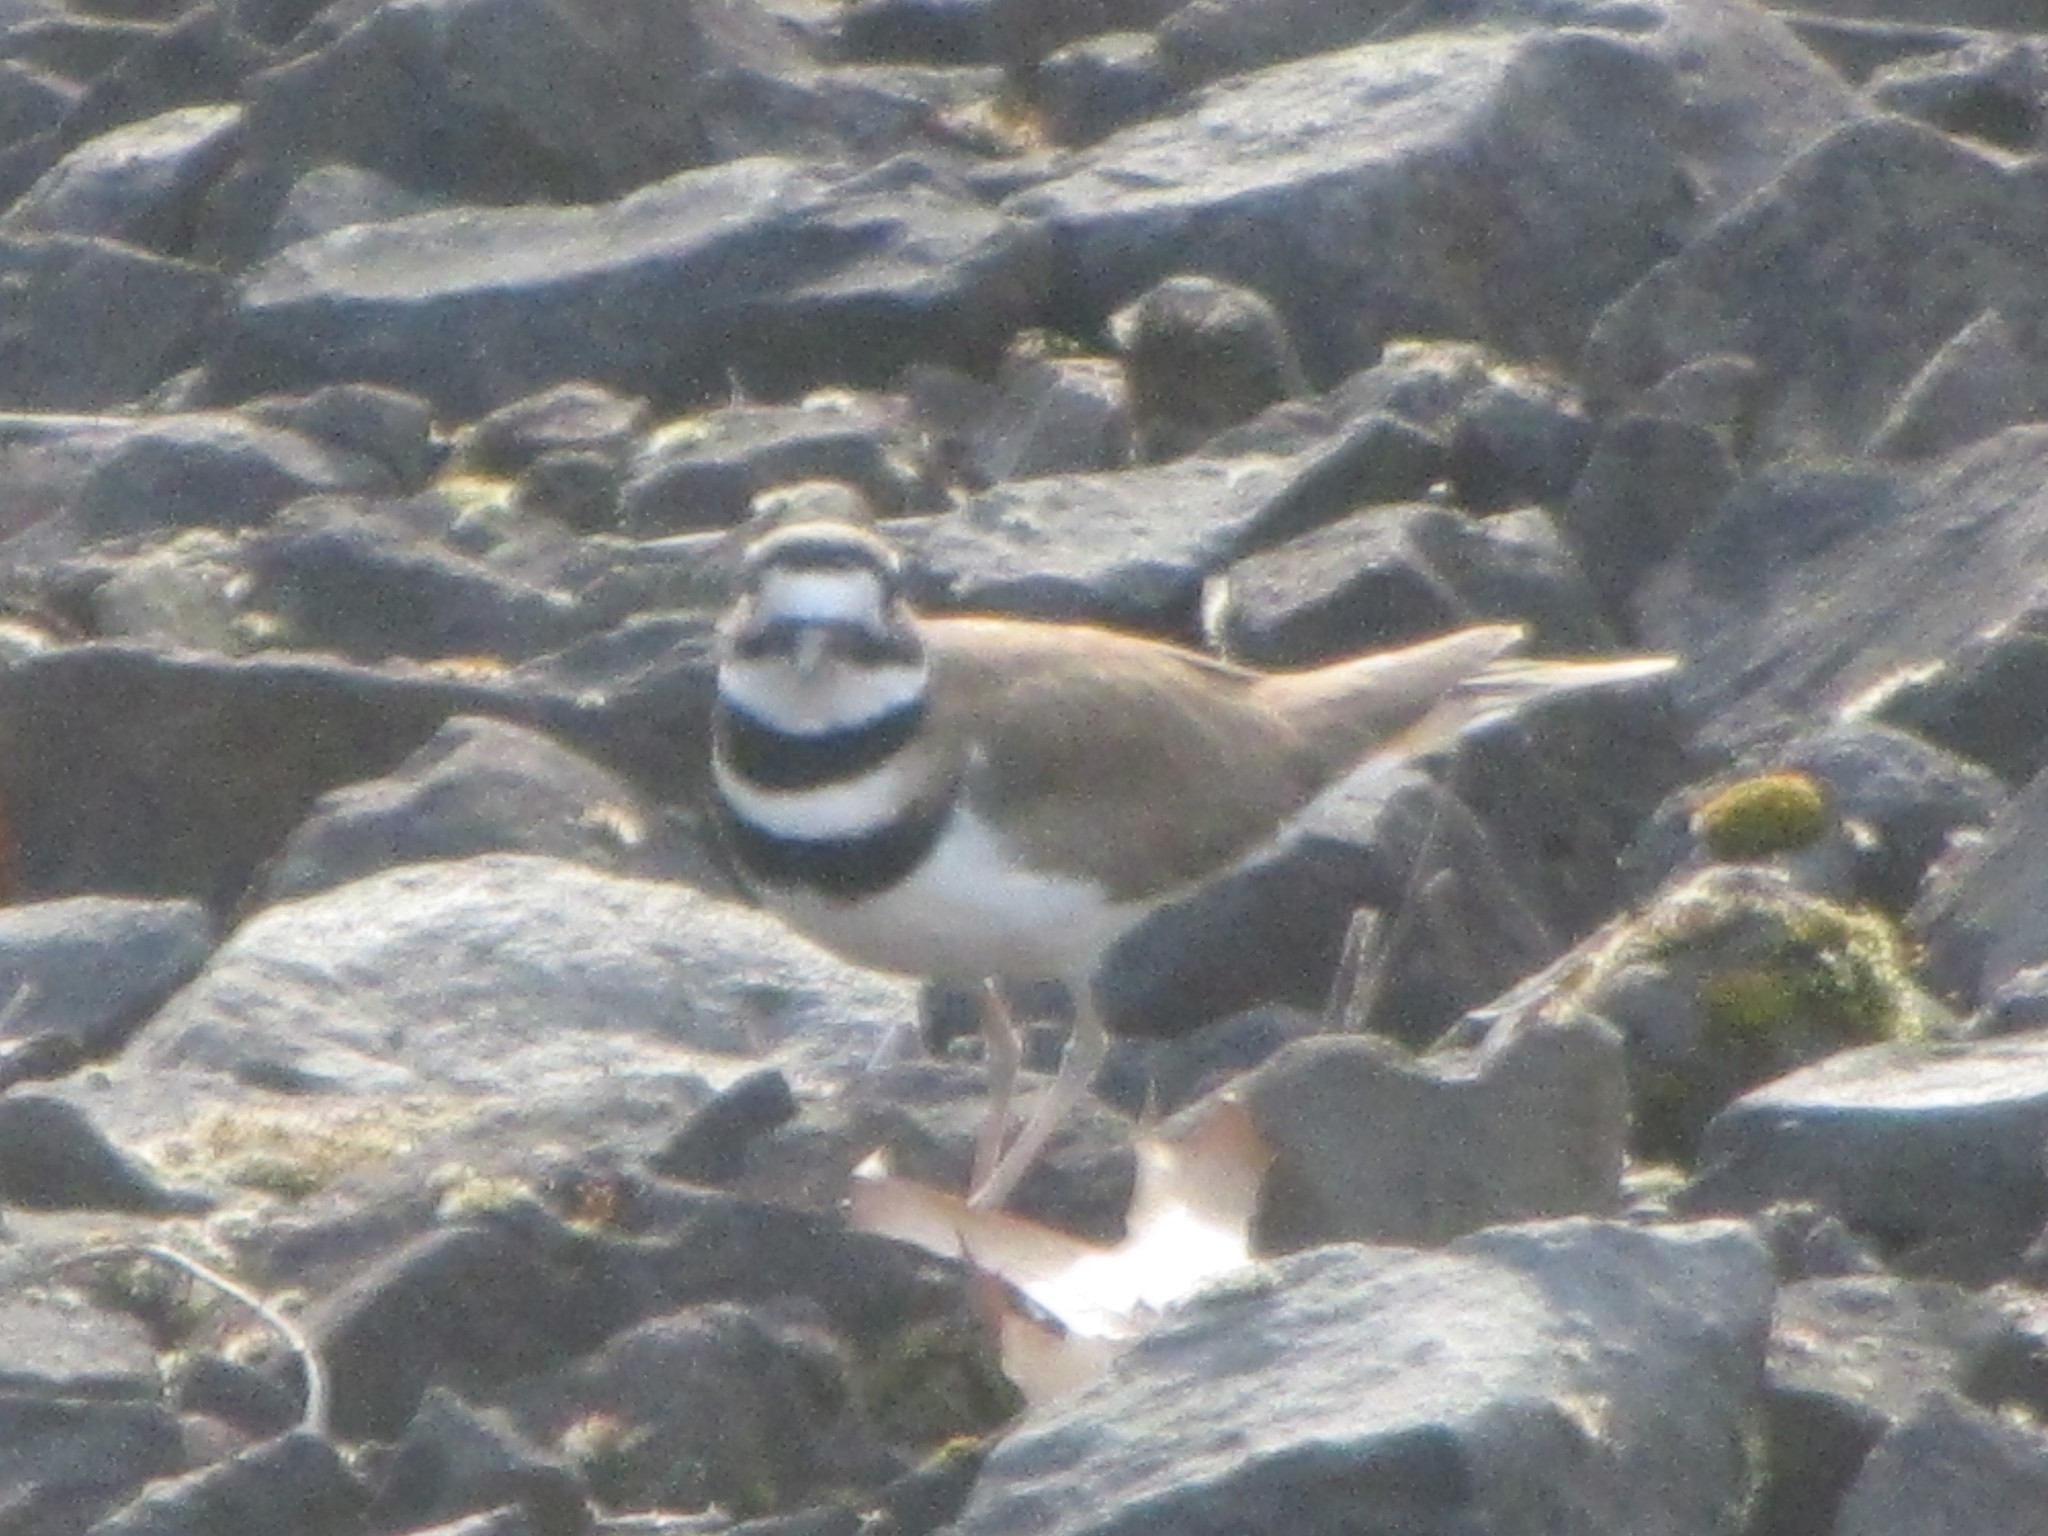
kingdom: Animalia
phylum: Chordata
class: Aves
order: Charadriiformes
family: Charadriidae
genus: Charadrius
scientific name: Charadrius vociferus
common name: Killdeer
